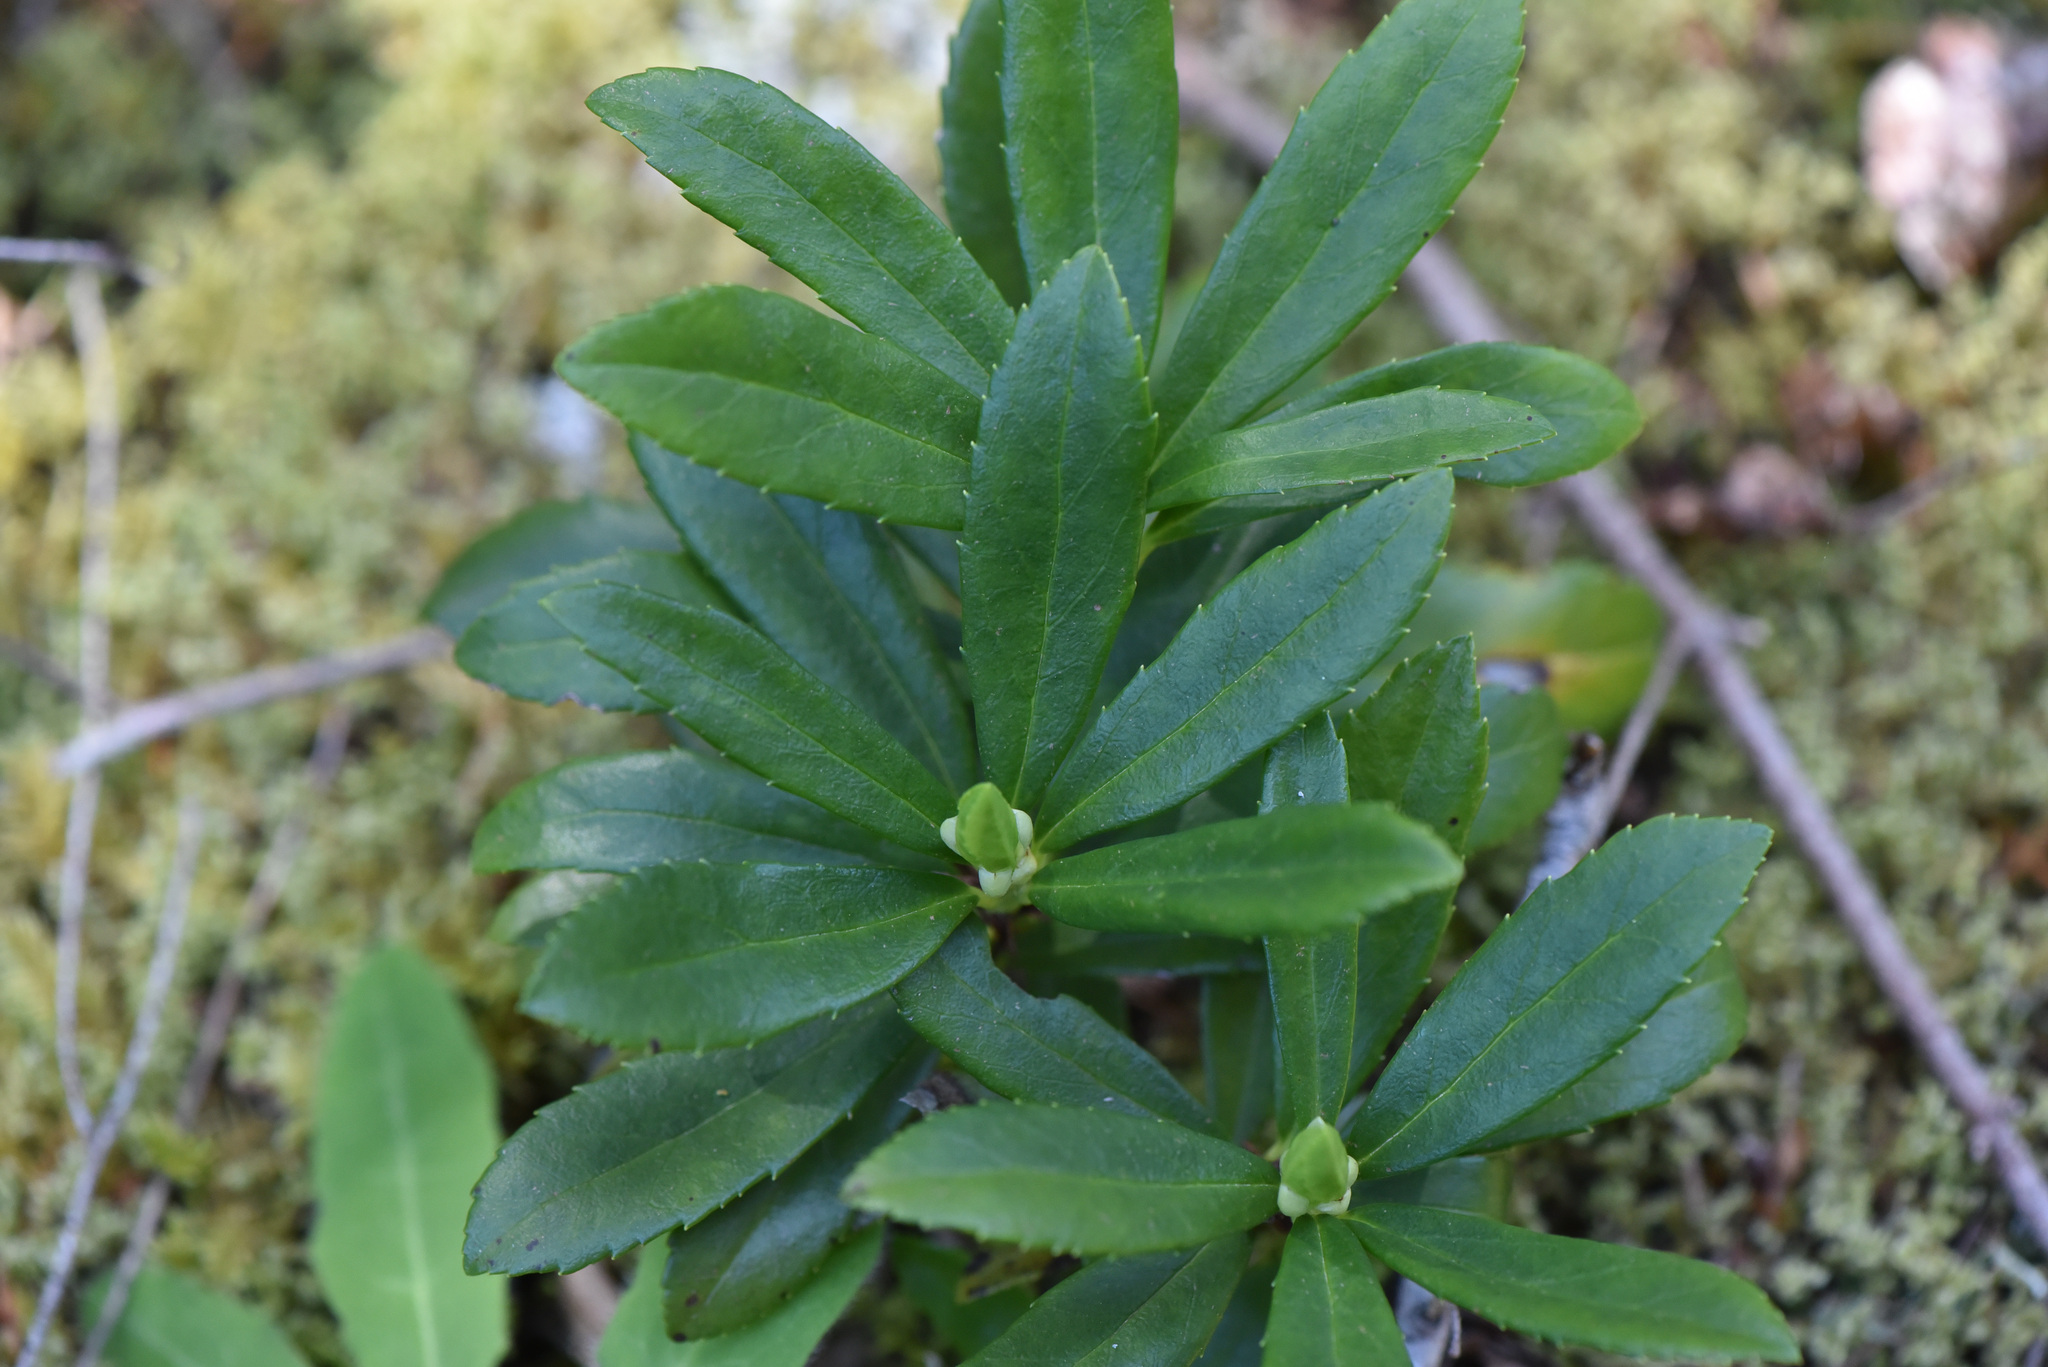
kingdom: Plantae
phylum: Tracheophyta
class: Magnoliopsida
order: Ericales
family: Ericaceae
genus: Chimaphila
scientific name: Chimaphila umbellata
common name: Pipsissewa
